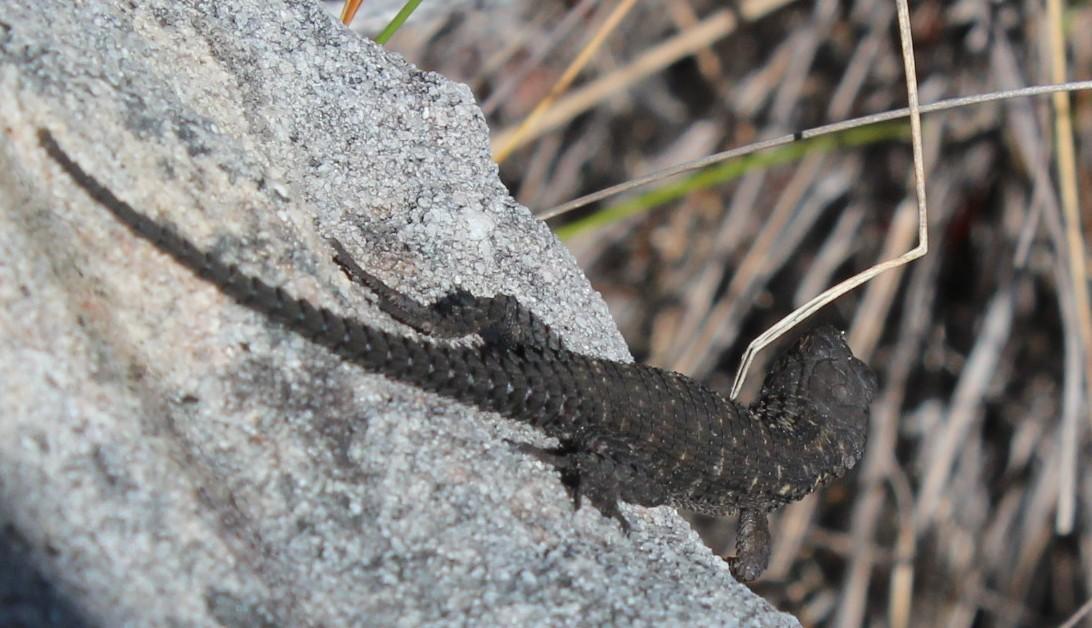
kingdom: Animalia
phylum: Chordata
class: Squamata
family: Cordylidae
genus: Cordylus
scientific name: Cordylus cordylus
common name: Cape girdled lizard
